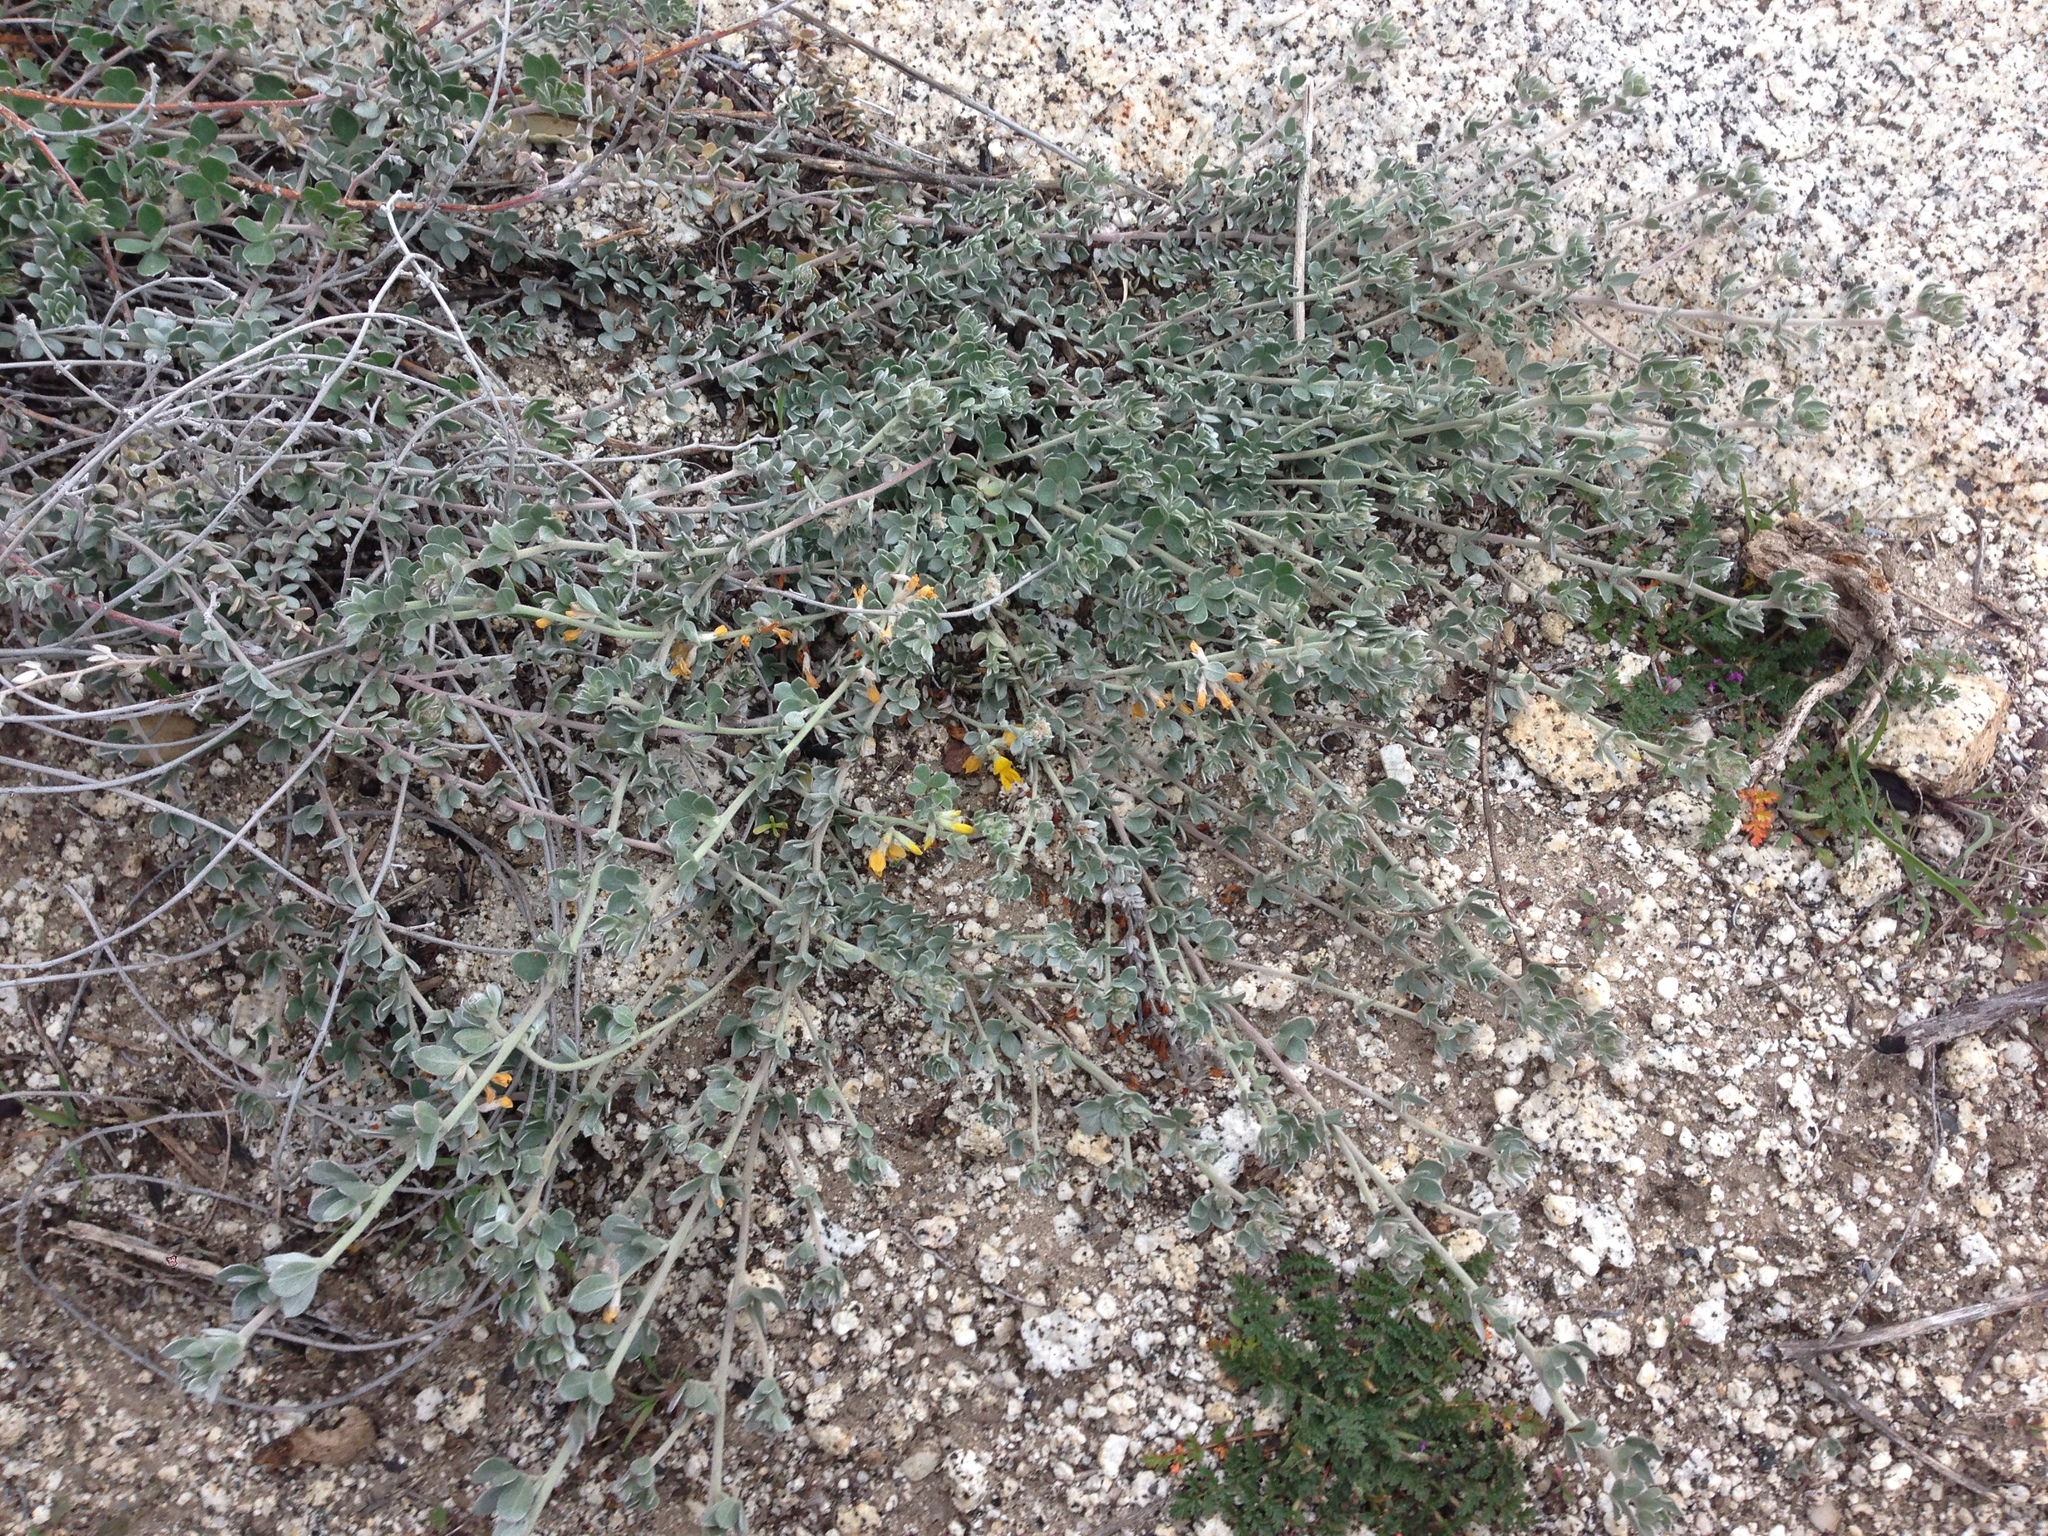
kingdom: Plantae
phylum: Tracheophyta
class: Magnoliopsida
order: Fabales
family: Fabaceae
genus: Acmispon
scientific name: Acmispon argophyllus
